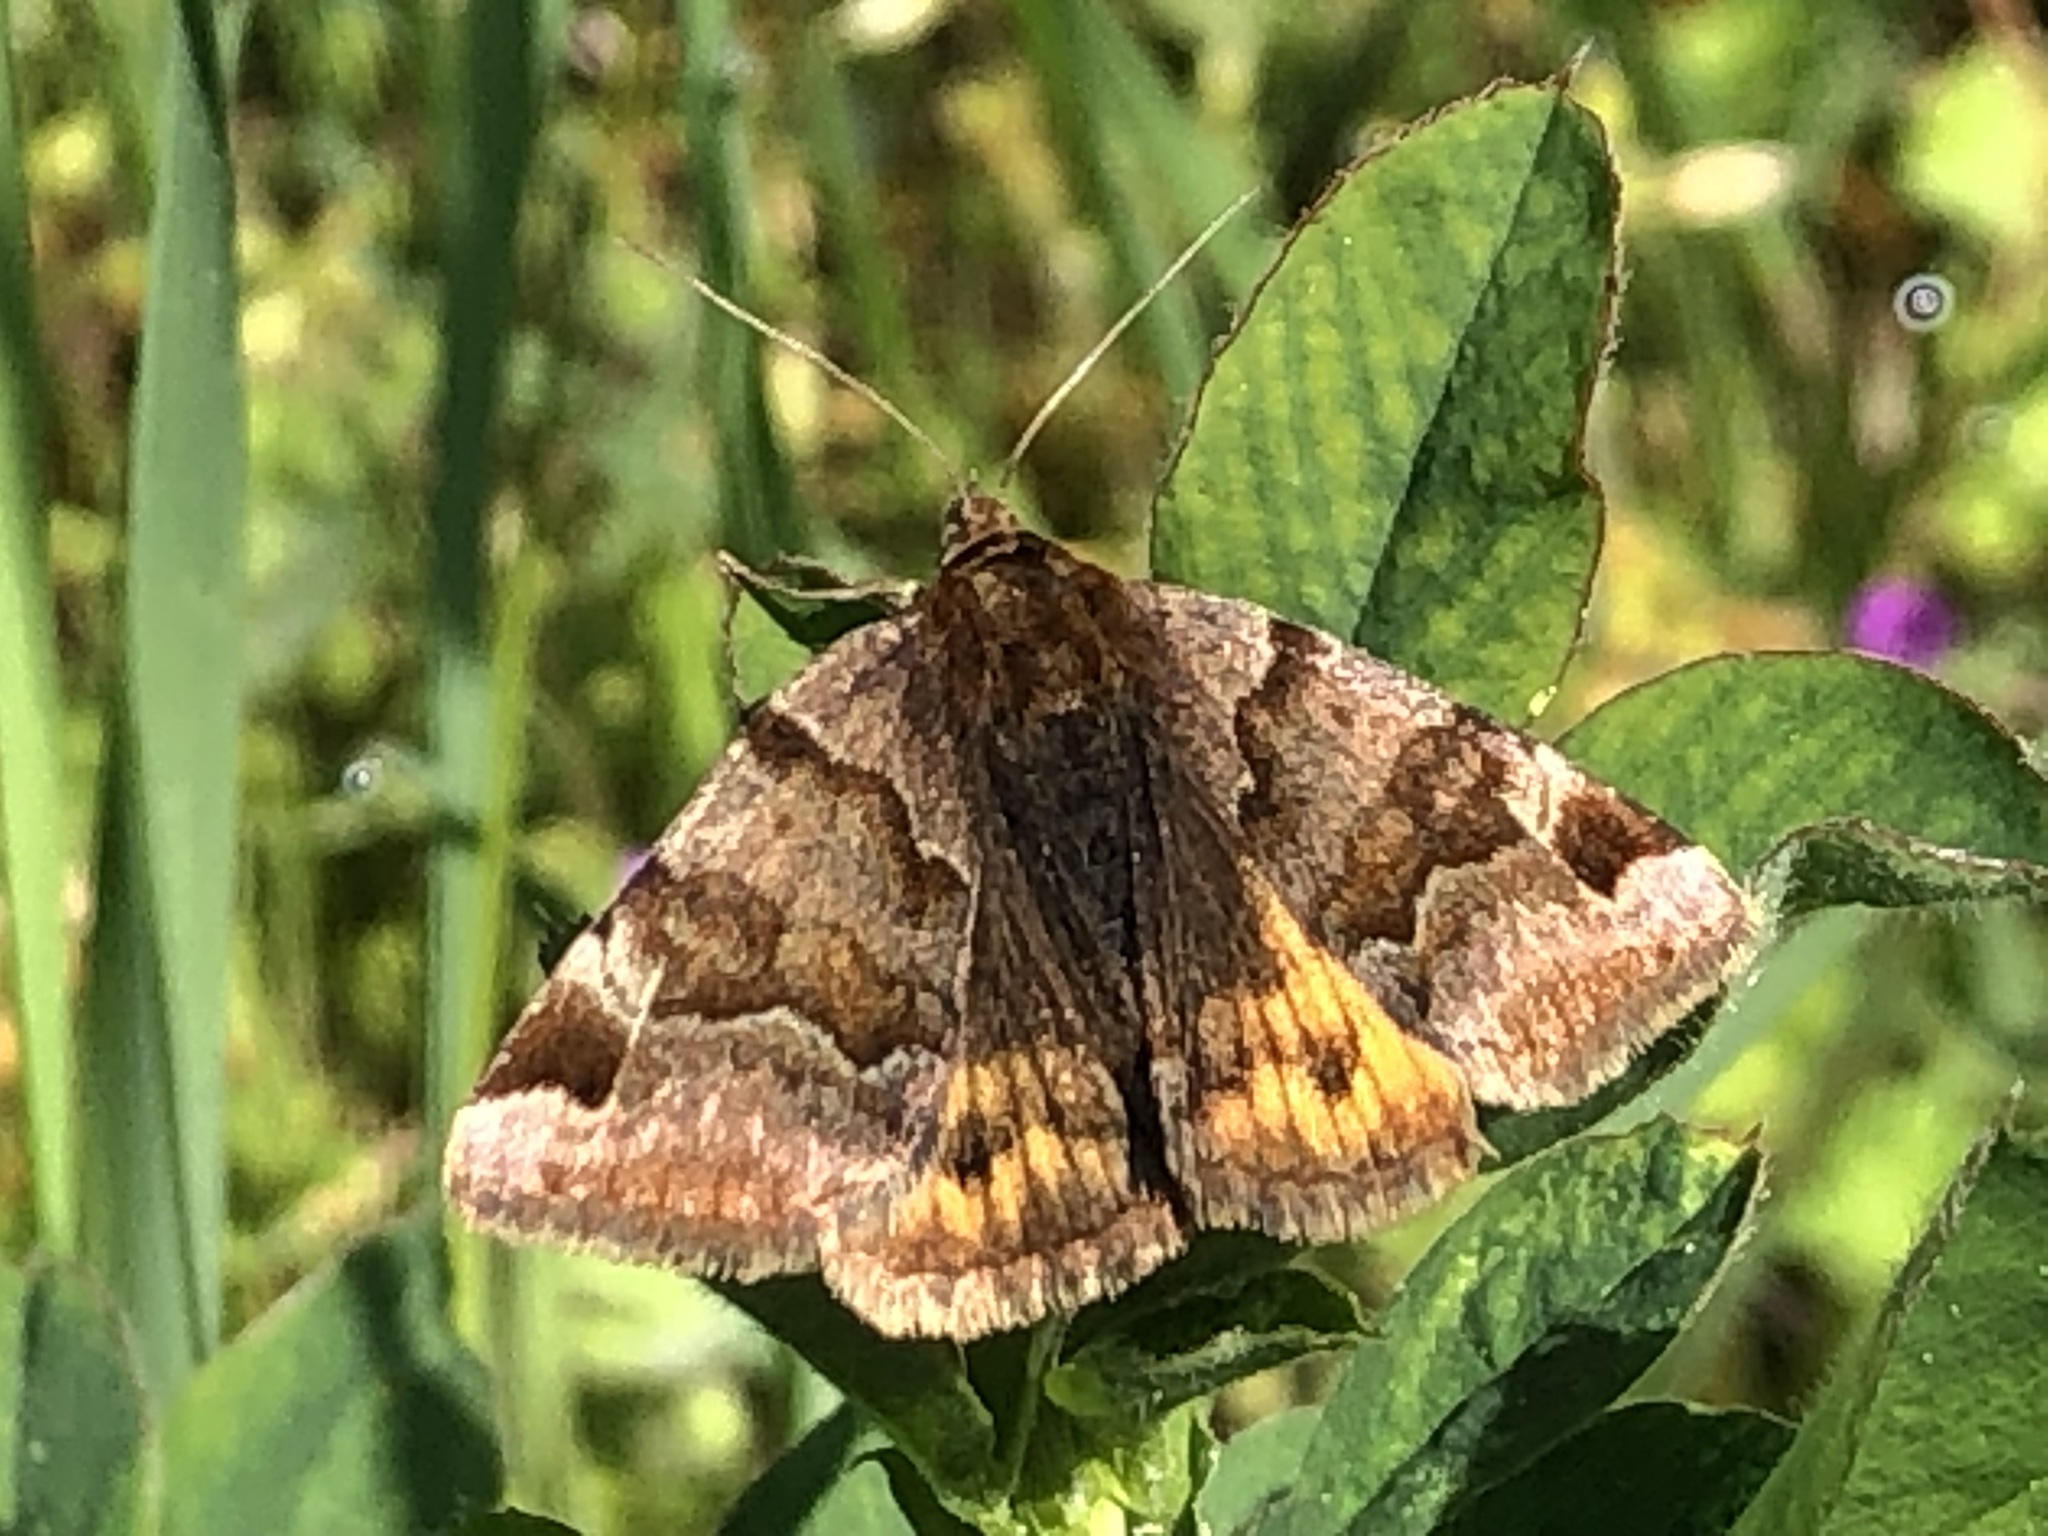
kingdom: Animalia
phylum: Arthropoda
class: Insecta
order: Lepidoptera
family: Erebidae
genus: Euclidia
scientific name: Euclidia glyphica
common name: Burnet companion
